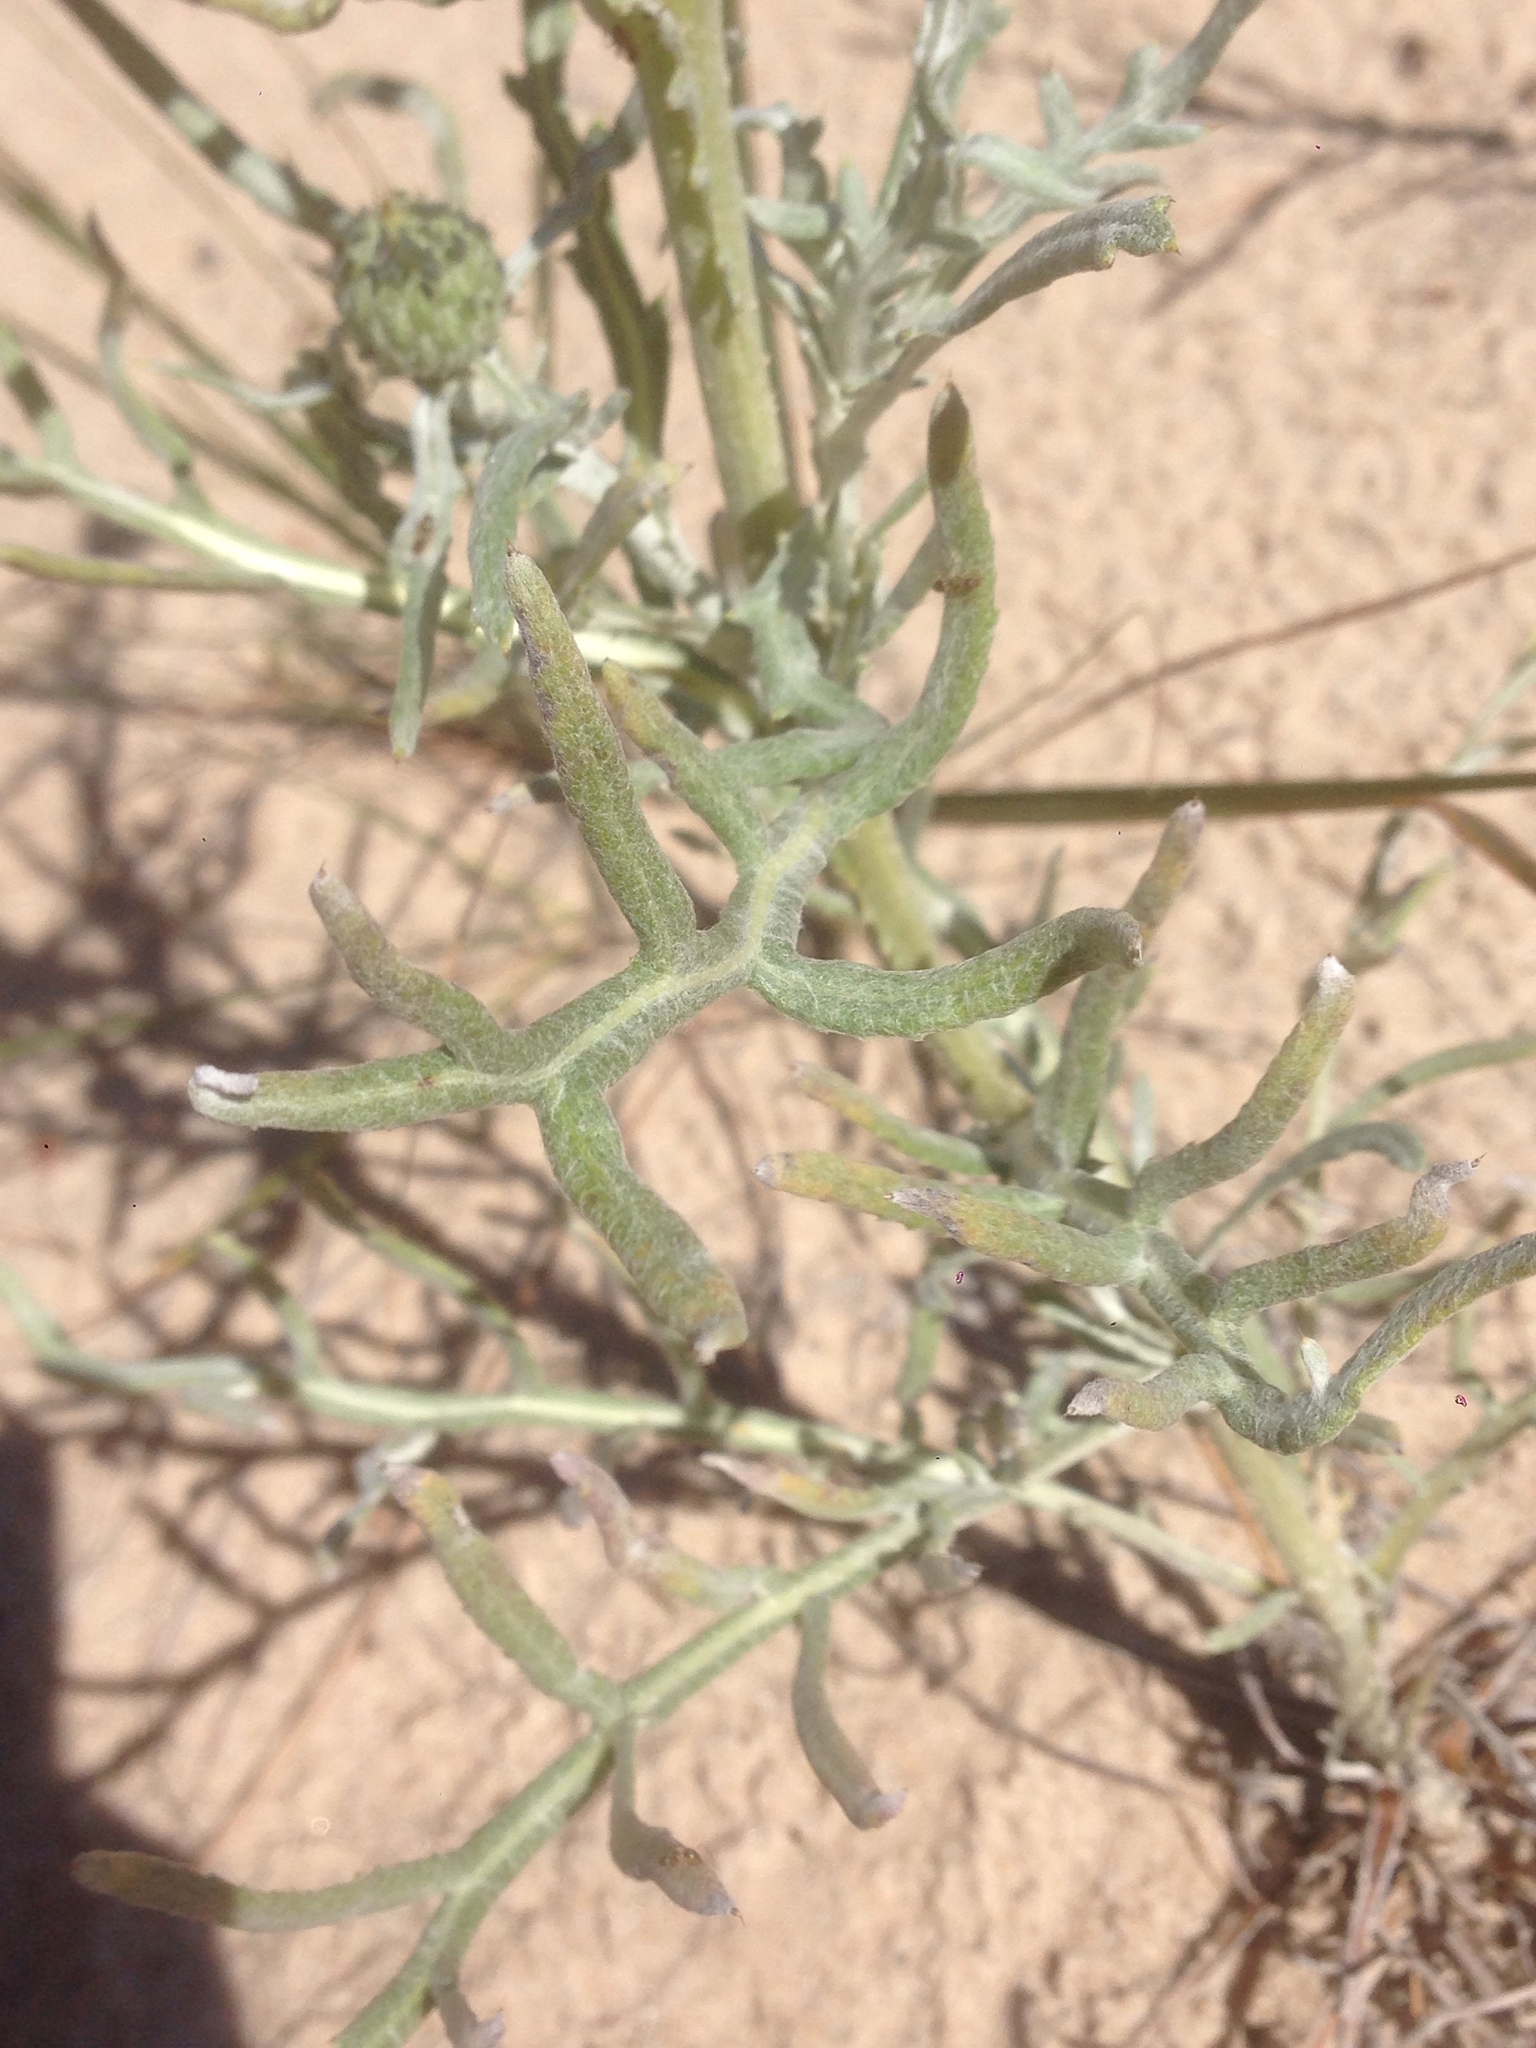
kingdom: Plantae
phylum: Tracheophyta
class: Magnoliopsida
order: Asterales
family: Asteraceae
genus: Cirsium
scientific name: Cirsium pitcheri
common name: Dune thistle
